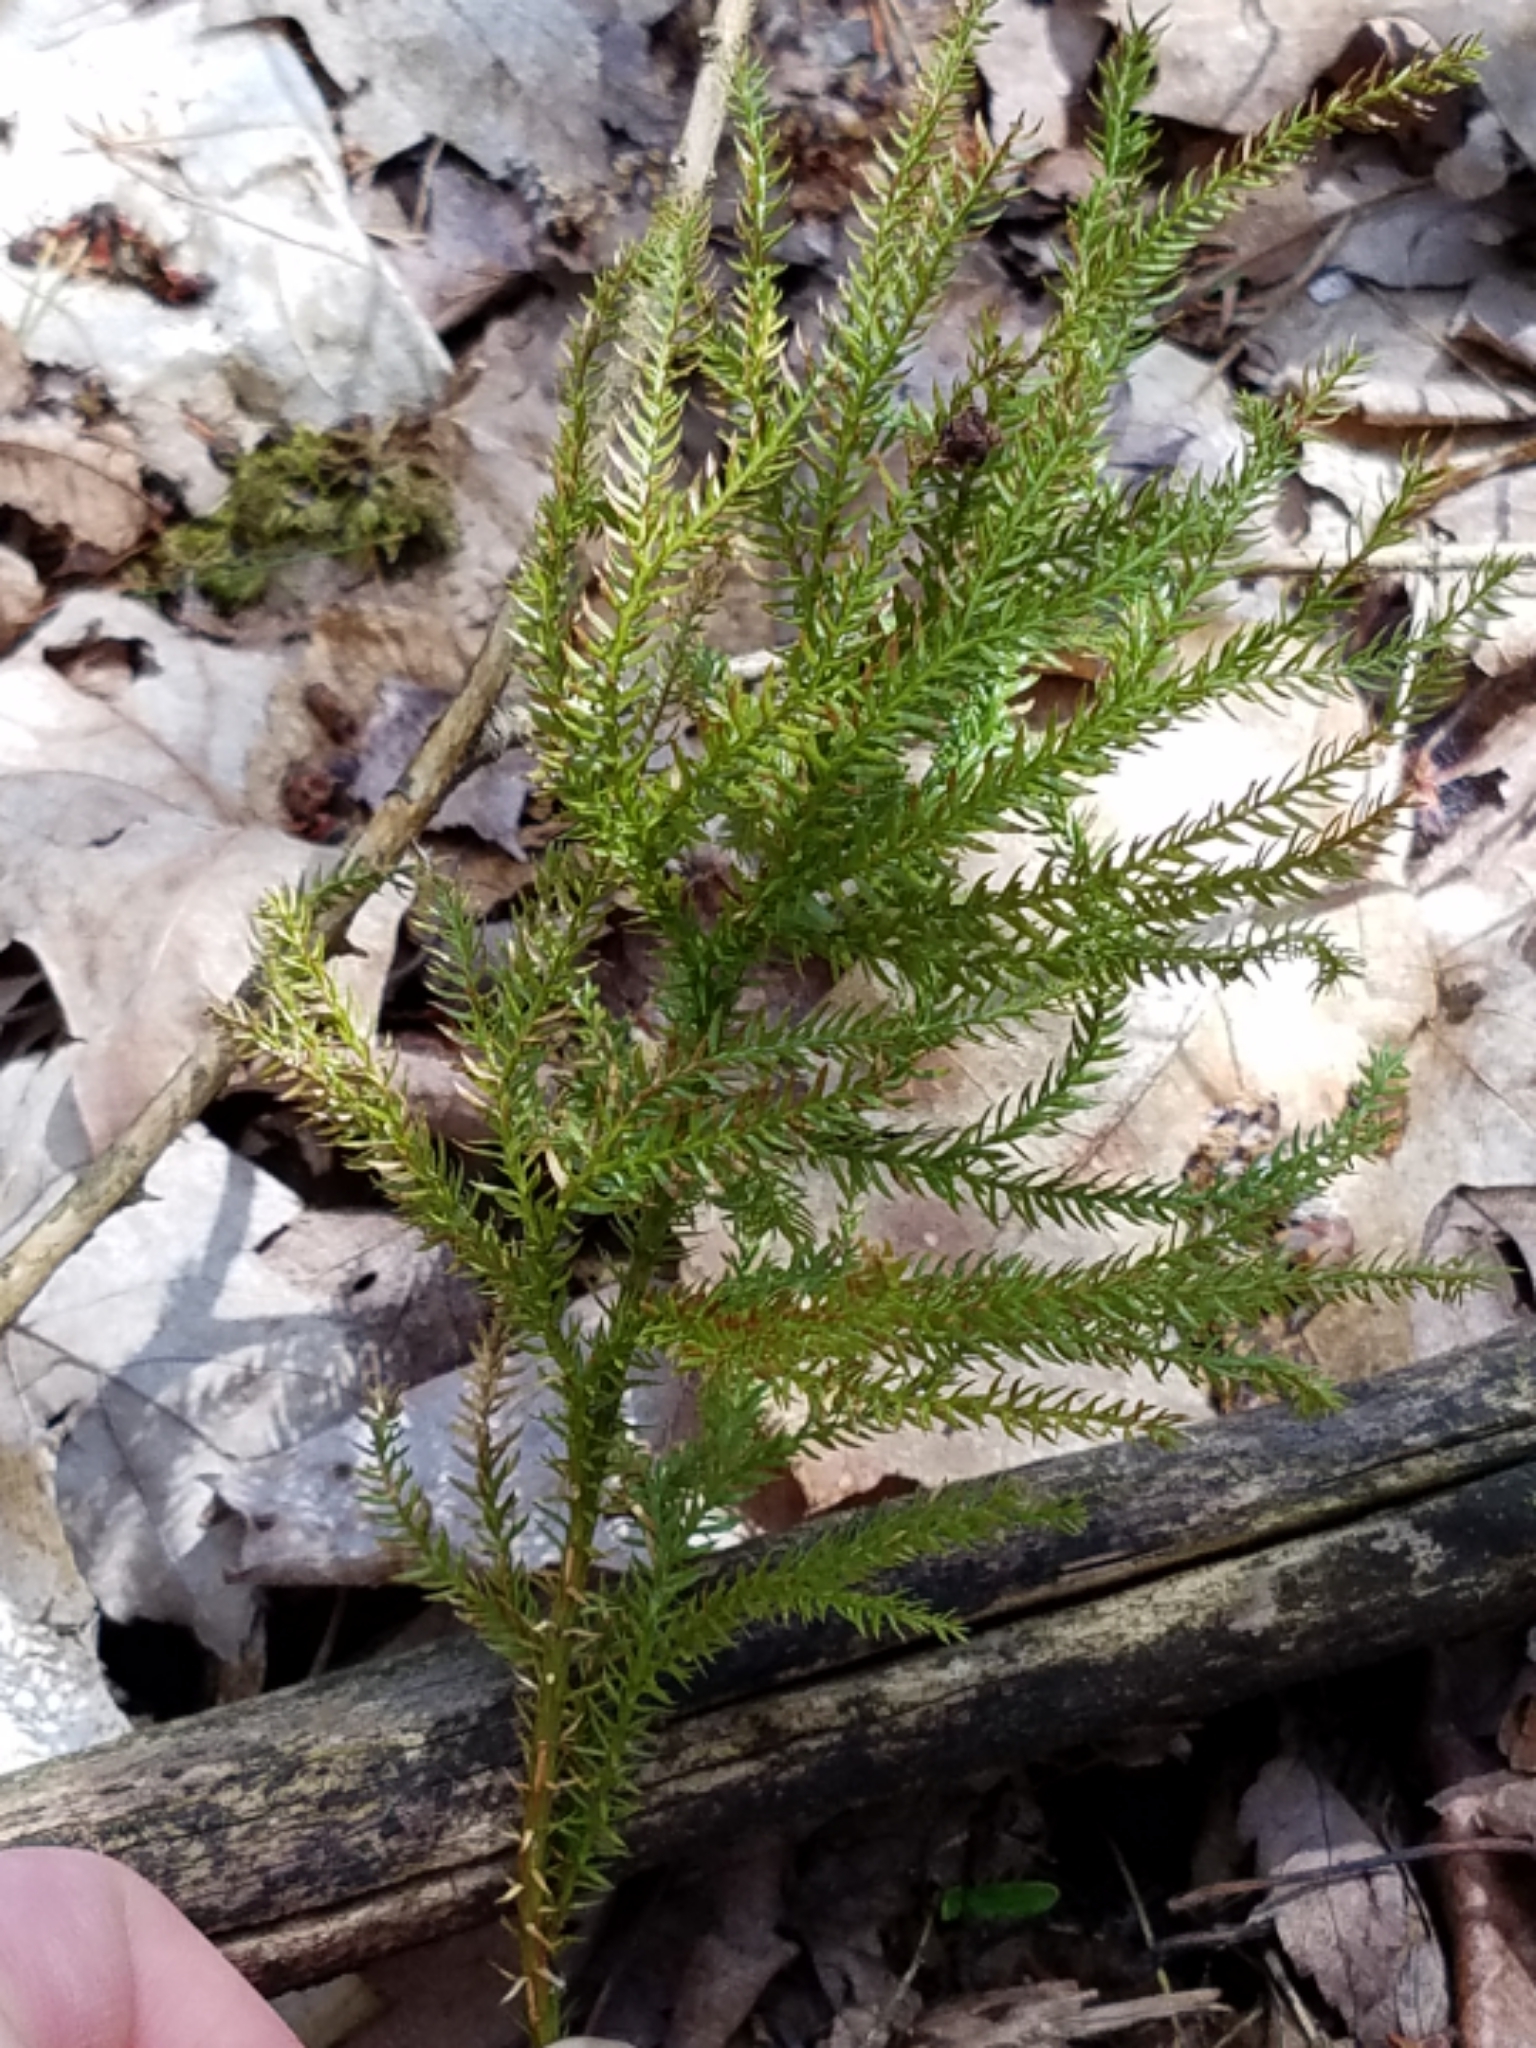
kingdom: Plantae
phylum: Tracheophyta
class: Lycopodiopsida
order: Lycopodiales
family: Lycopodiaceae
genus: Dendrolycopodium
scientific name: Dendrolycopodium dendroideum
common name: Northern tree-clubmoss
